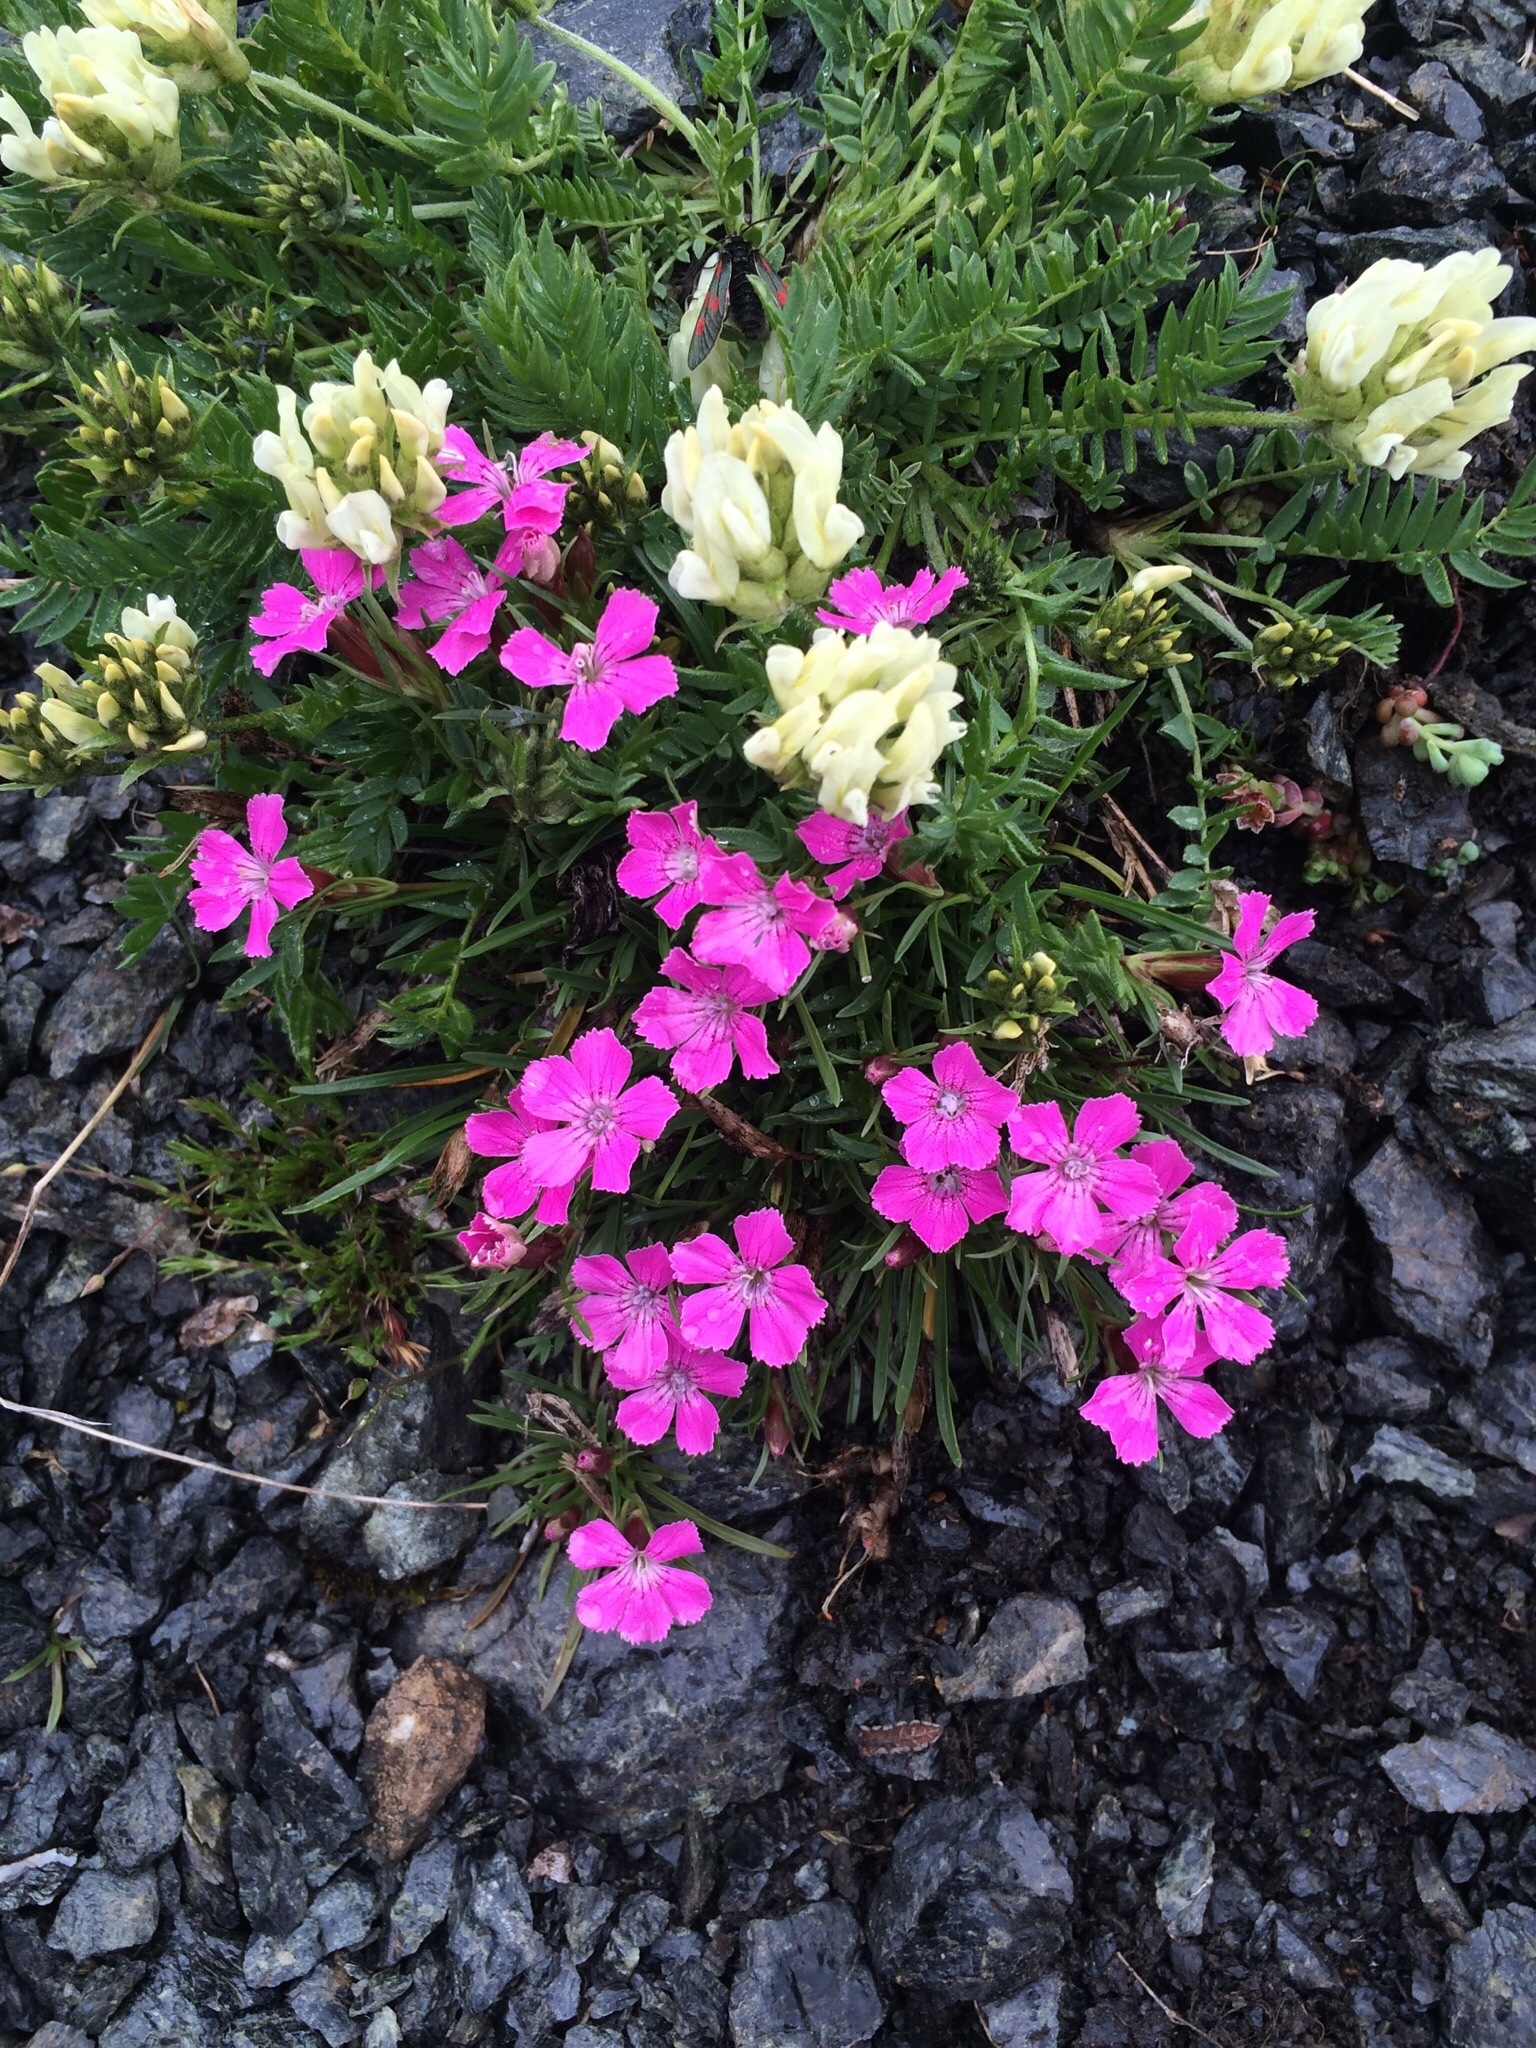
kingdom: Plantae
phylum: Tracheophyta
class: Magnoliopsida
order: Caryophyllales
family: Caryophyllaceae
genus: Dianthus
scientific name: Dianthus glacialis
